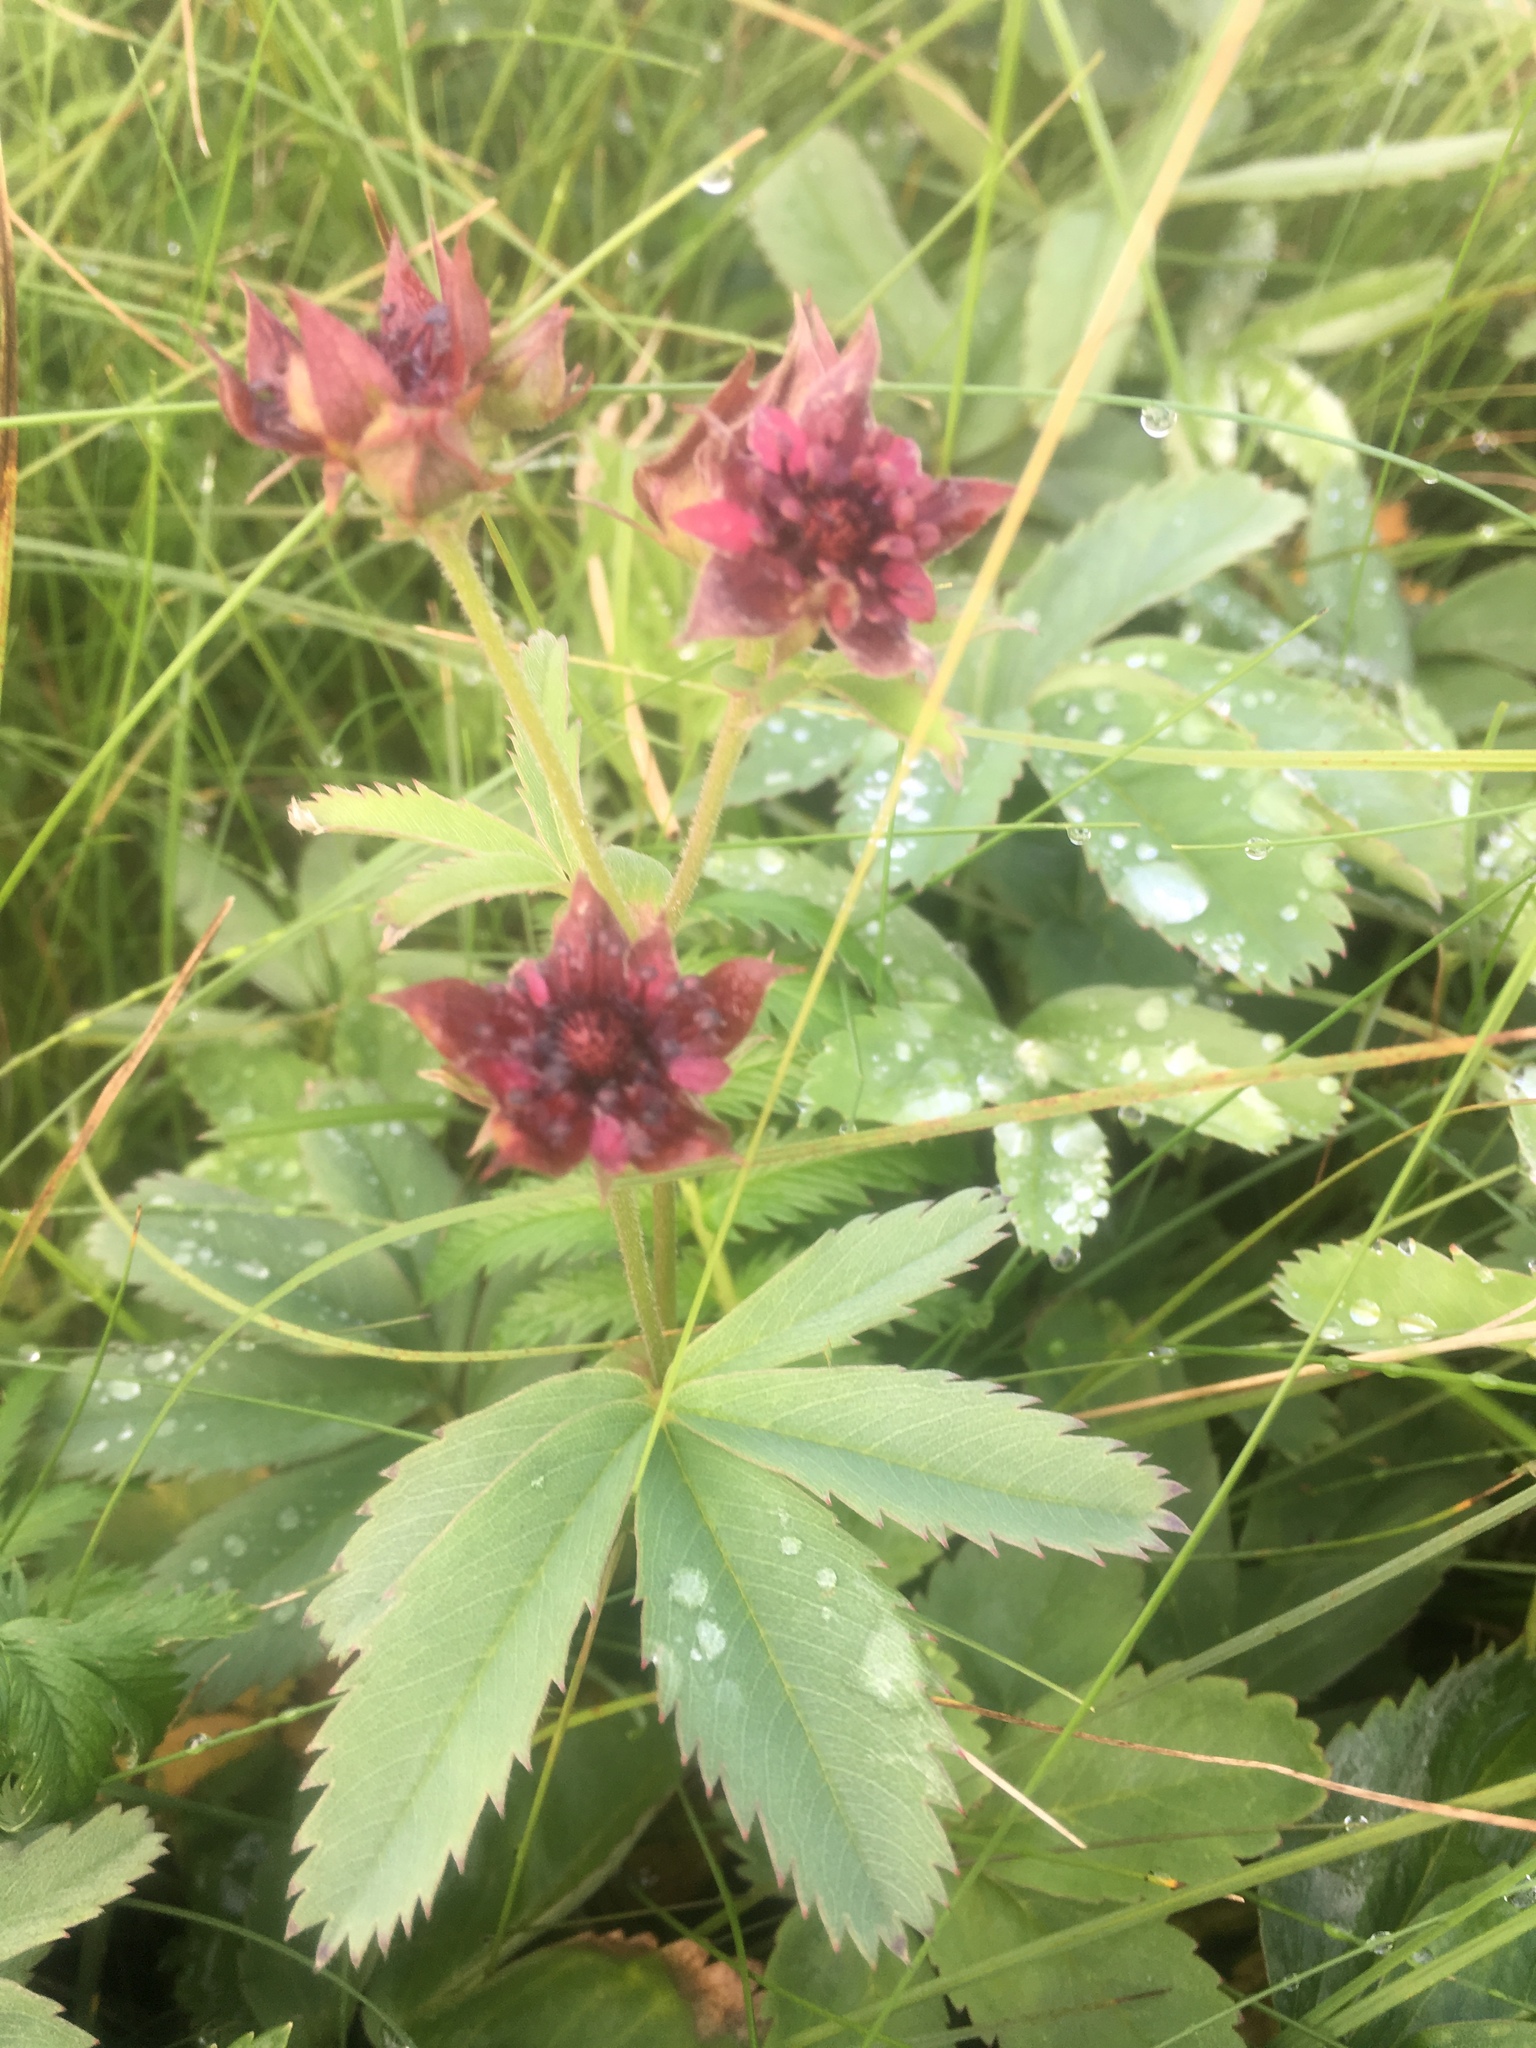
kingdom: Plantae
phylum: Tracheophyta
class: Magnoliopsida
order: Rosales
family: Rosaceae
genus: Comarum
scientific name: Comarum palustre
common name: Marsh cinquefoil
